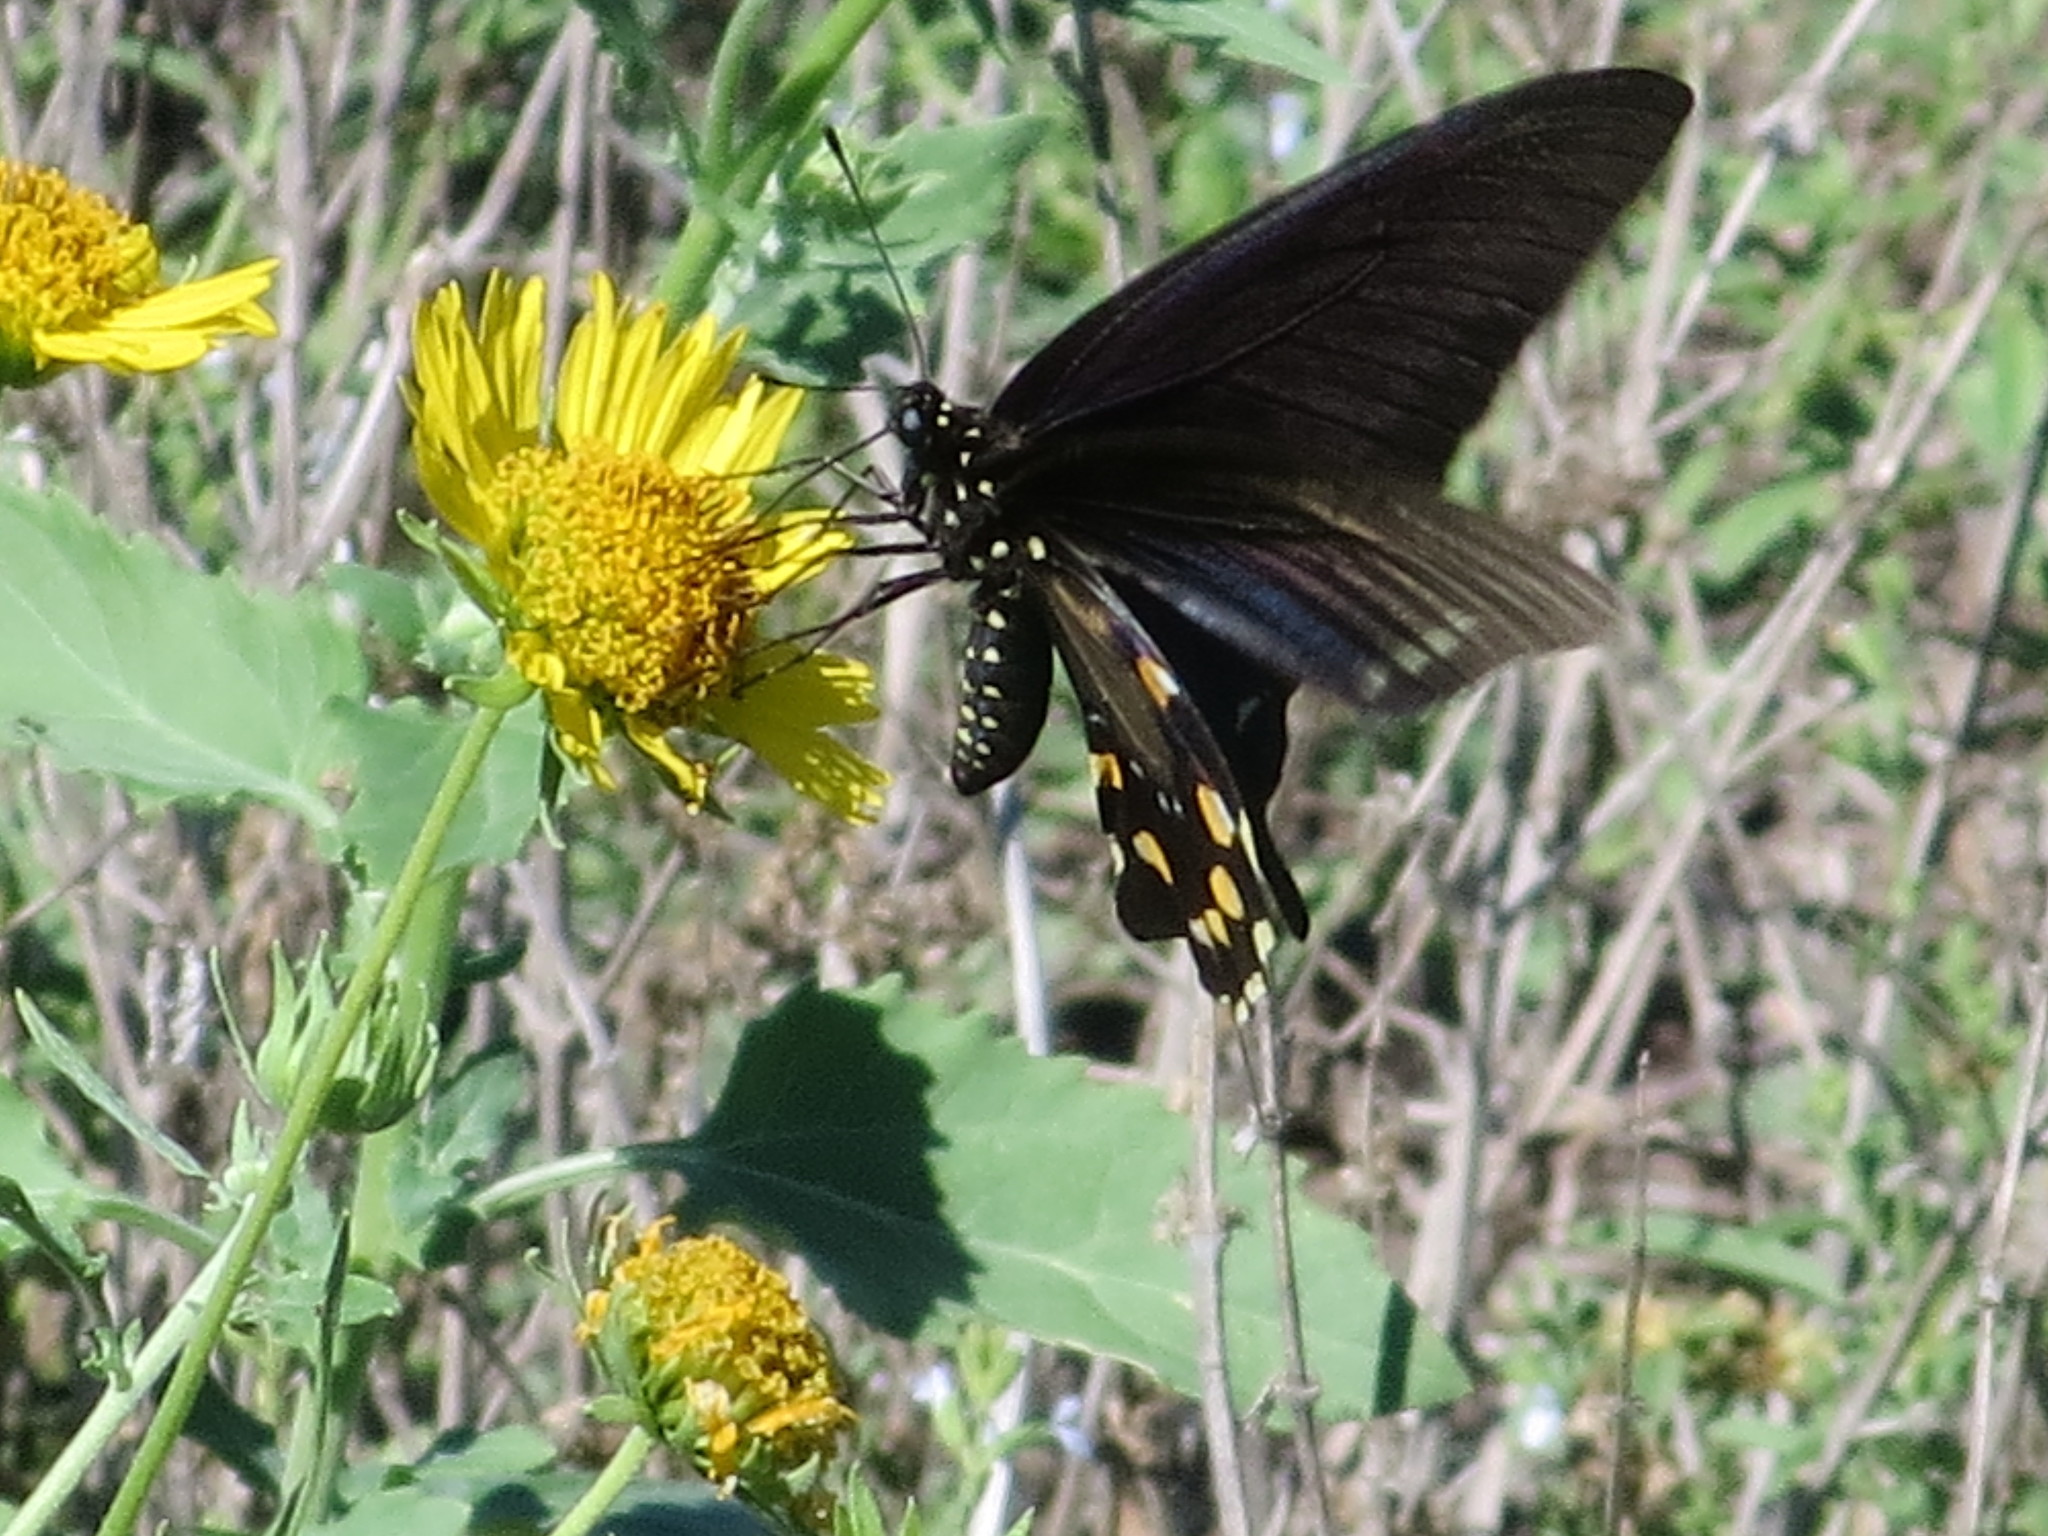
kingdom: Animalia
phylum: Arthropoda
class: Insecta
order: Lepidoptera
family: Papilionidae
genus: Battus
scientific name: Battus philenor
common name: Pipevine swallowtail
